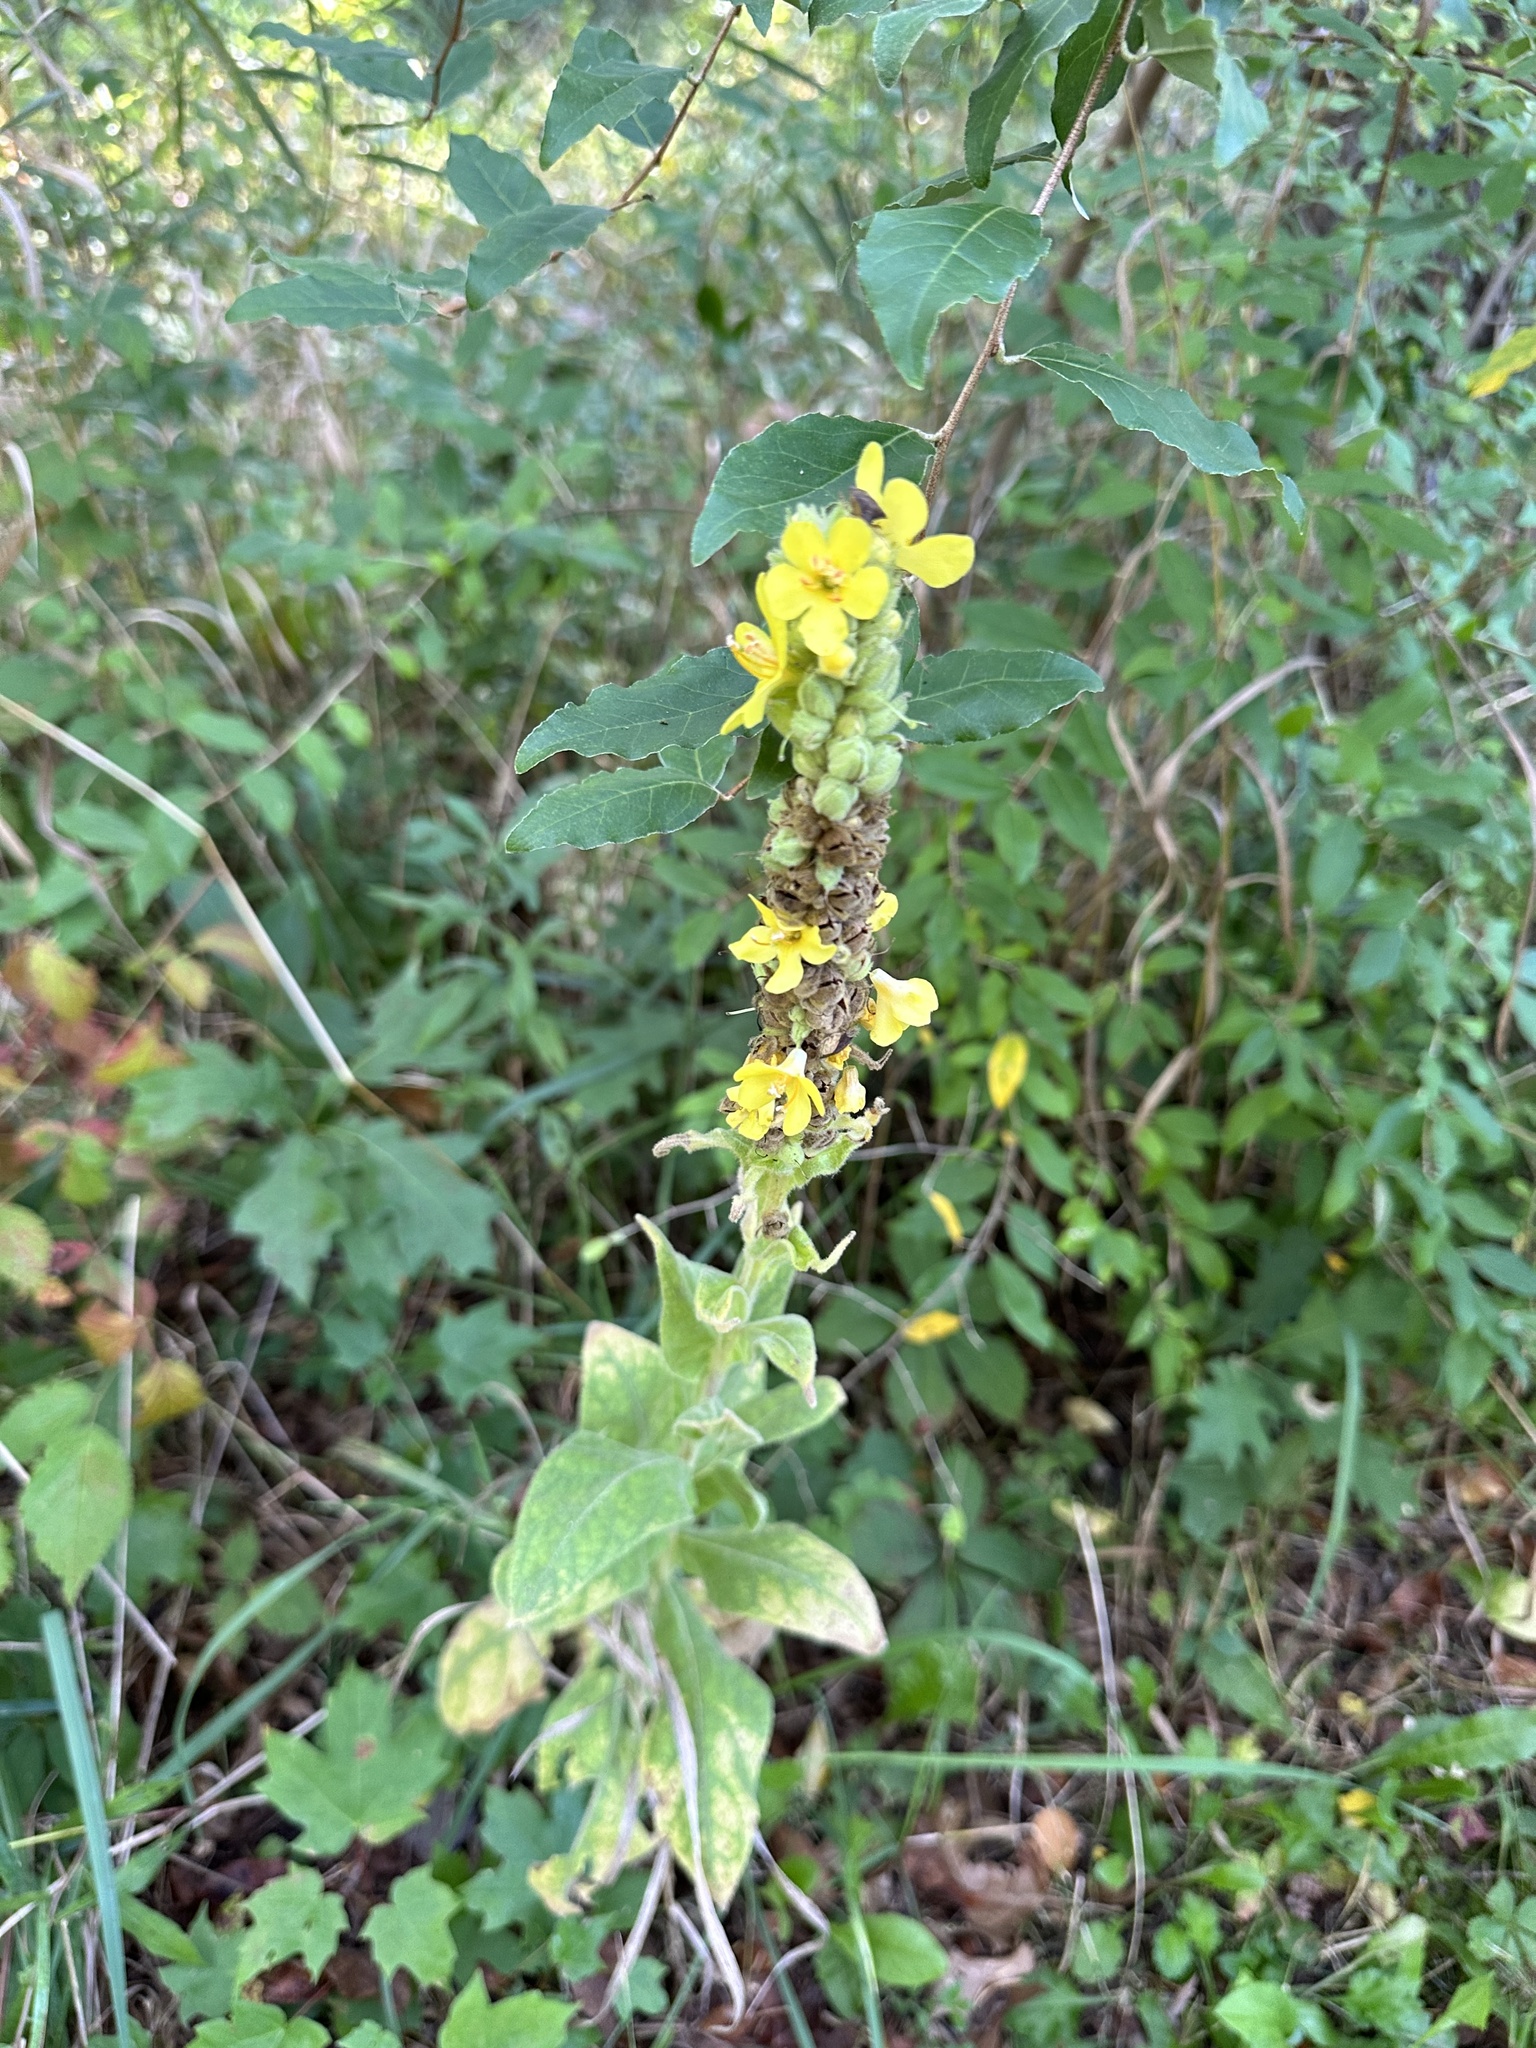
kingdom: Plantae
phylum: Tracheophyta
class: Magnoliopsida
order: Lamiales
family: Scrophulariaceae
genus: Verbascum
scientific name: Verbascum thapsus
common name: Common mullein
